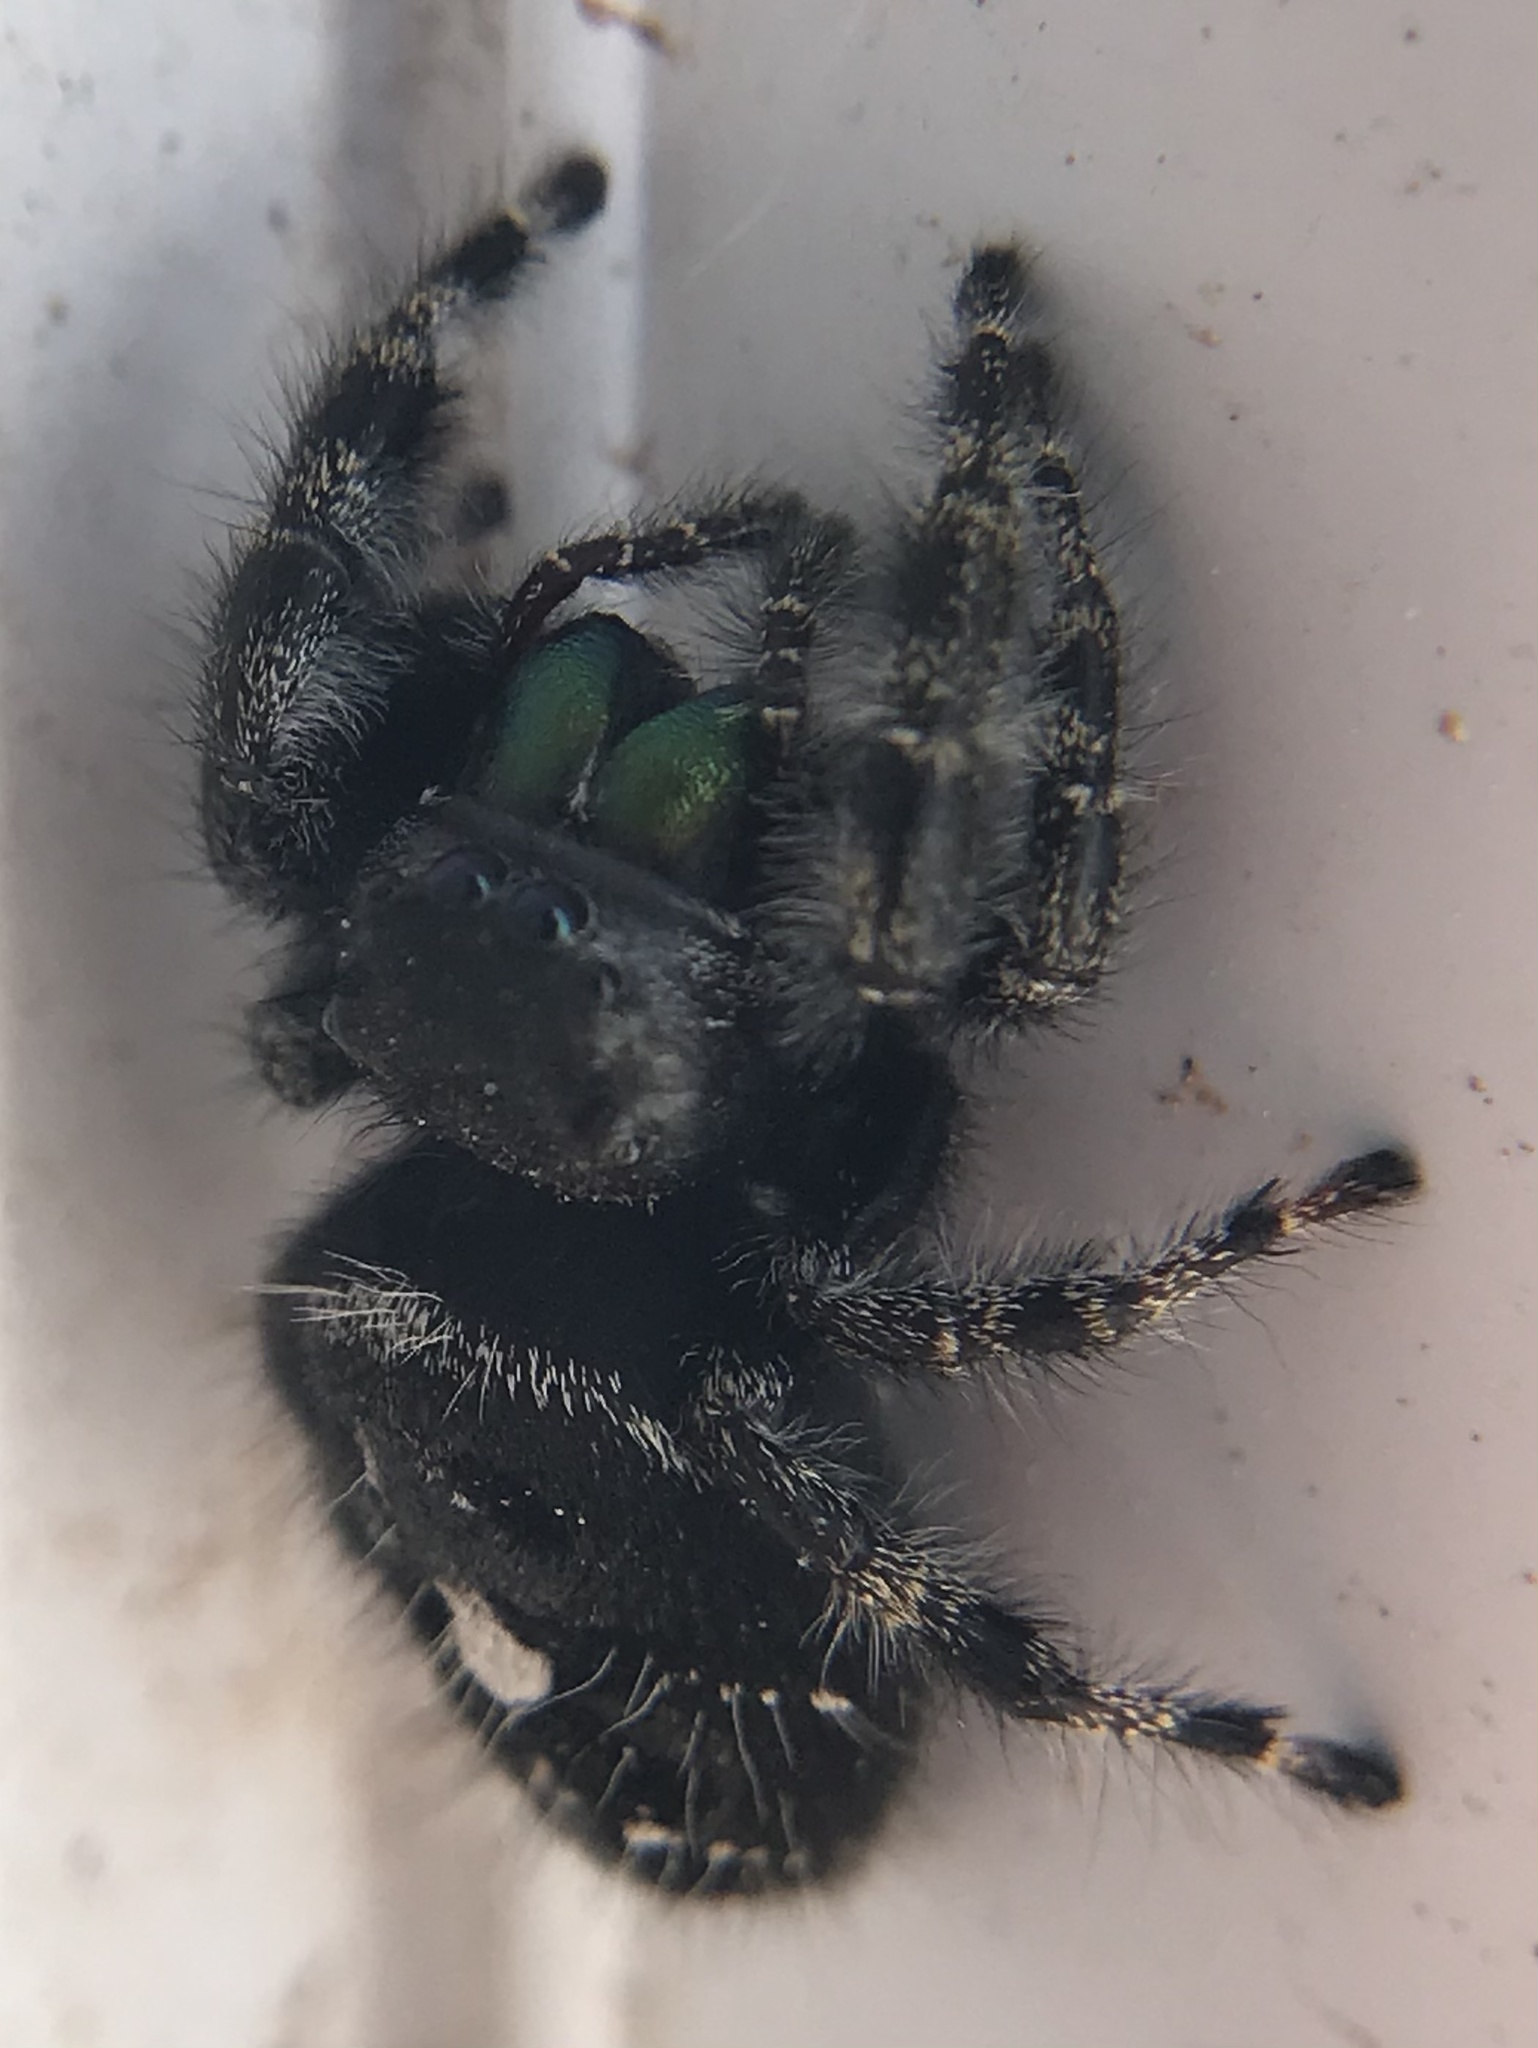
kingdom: Animalia
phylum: Arthropoda
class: Arachnida
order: Araneae
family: Salticidae
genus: Phidippus
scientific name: Phidippus audax
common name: Bold jumper
